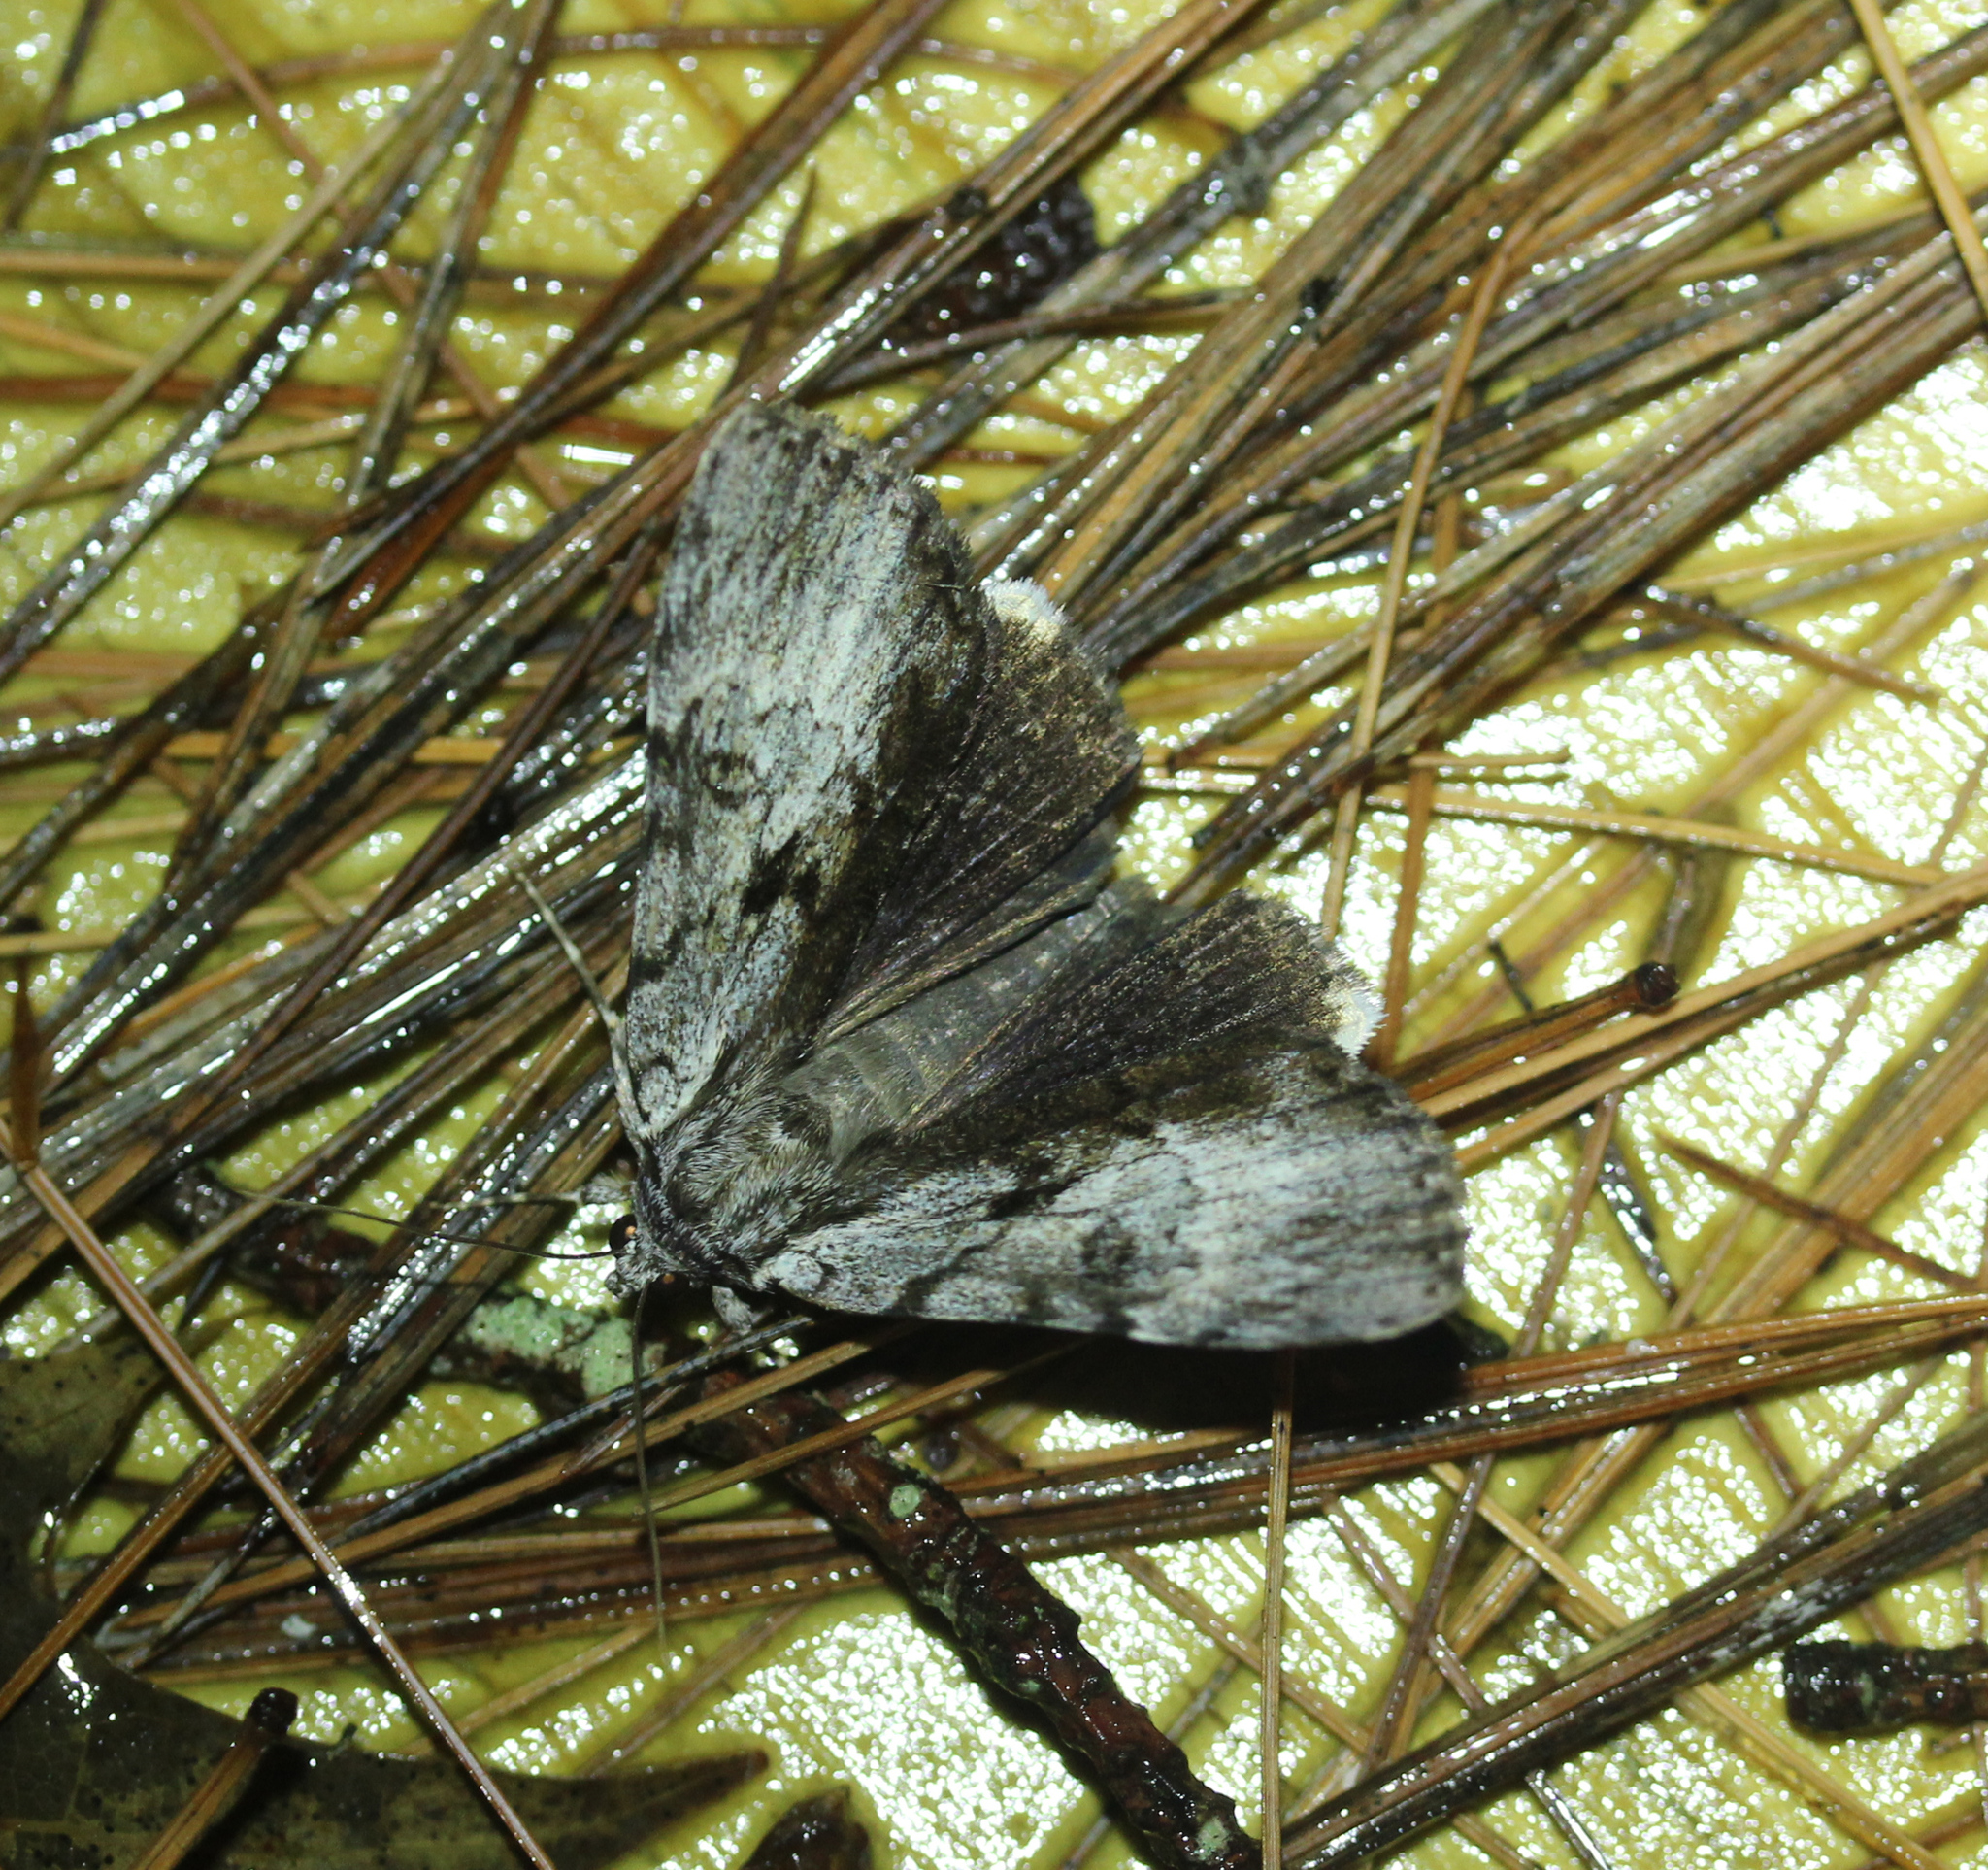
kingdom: Animalia
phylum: Arthropoda
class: Insecta
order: Lepidoptera
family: Erebidae
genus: Catocala
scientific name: Catocala andromedae
